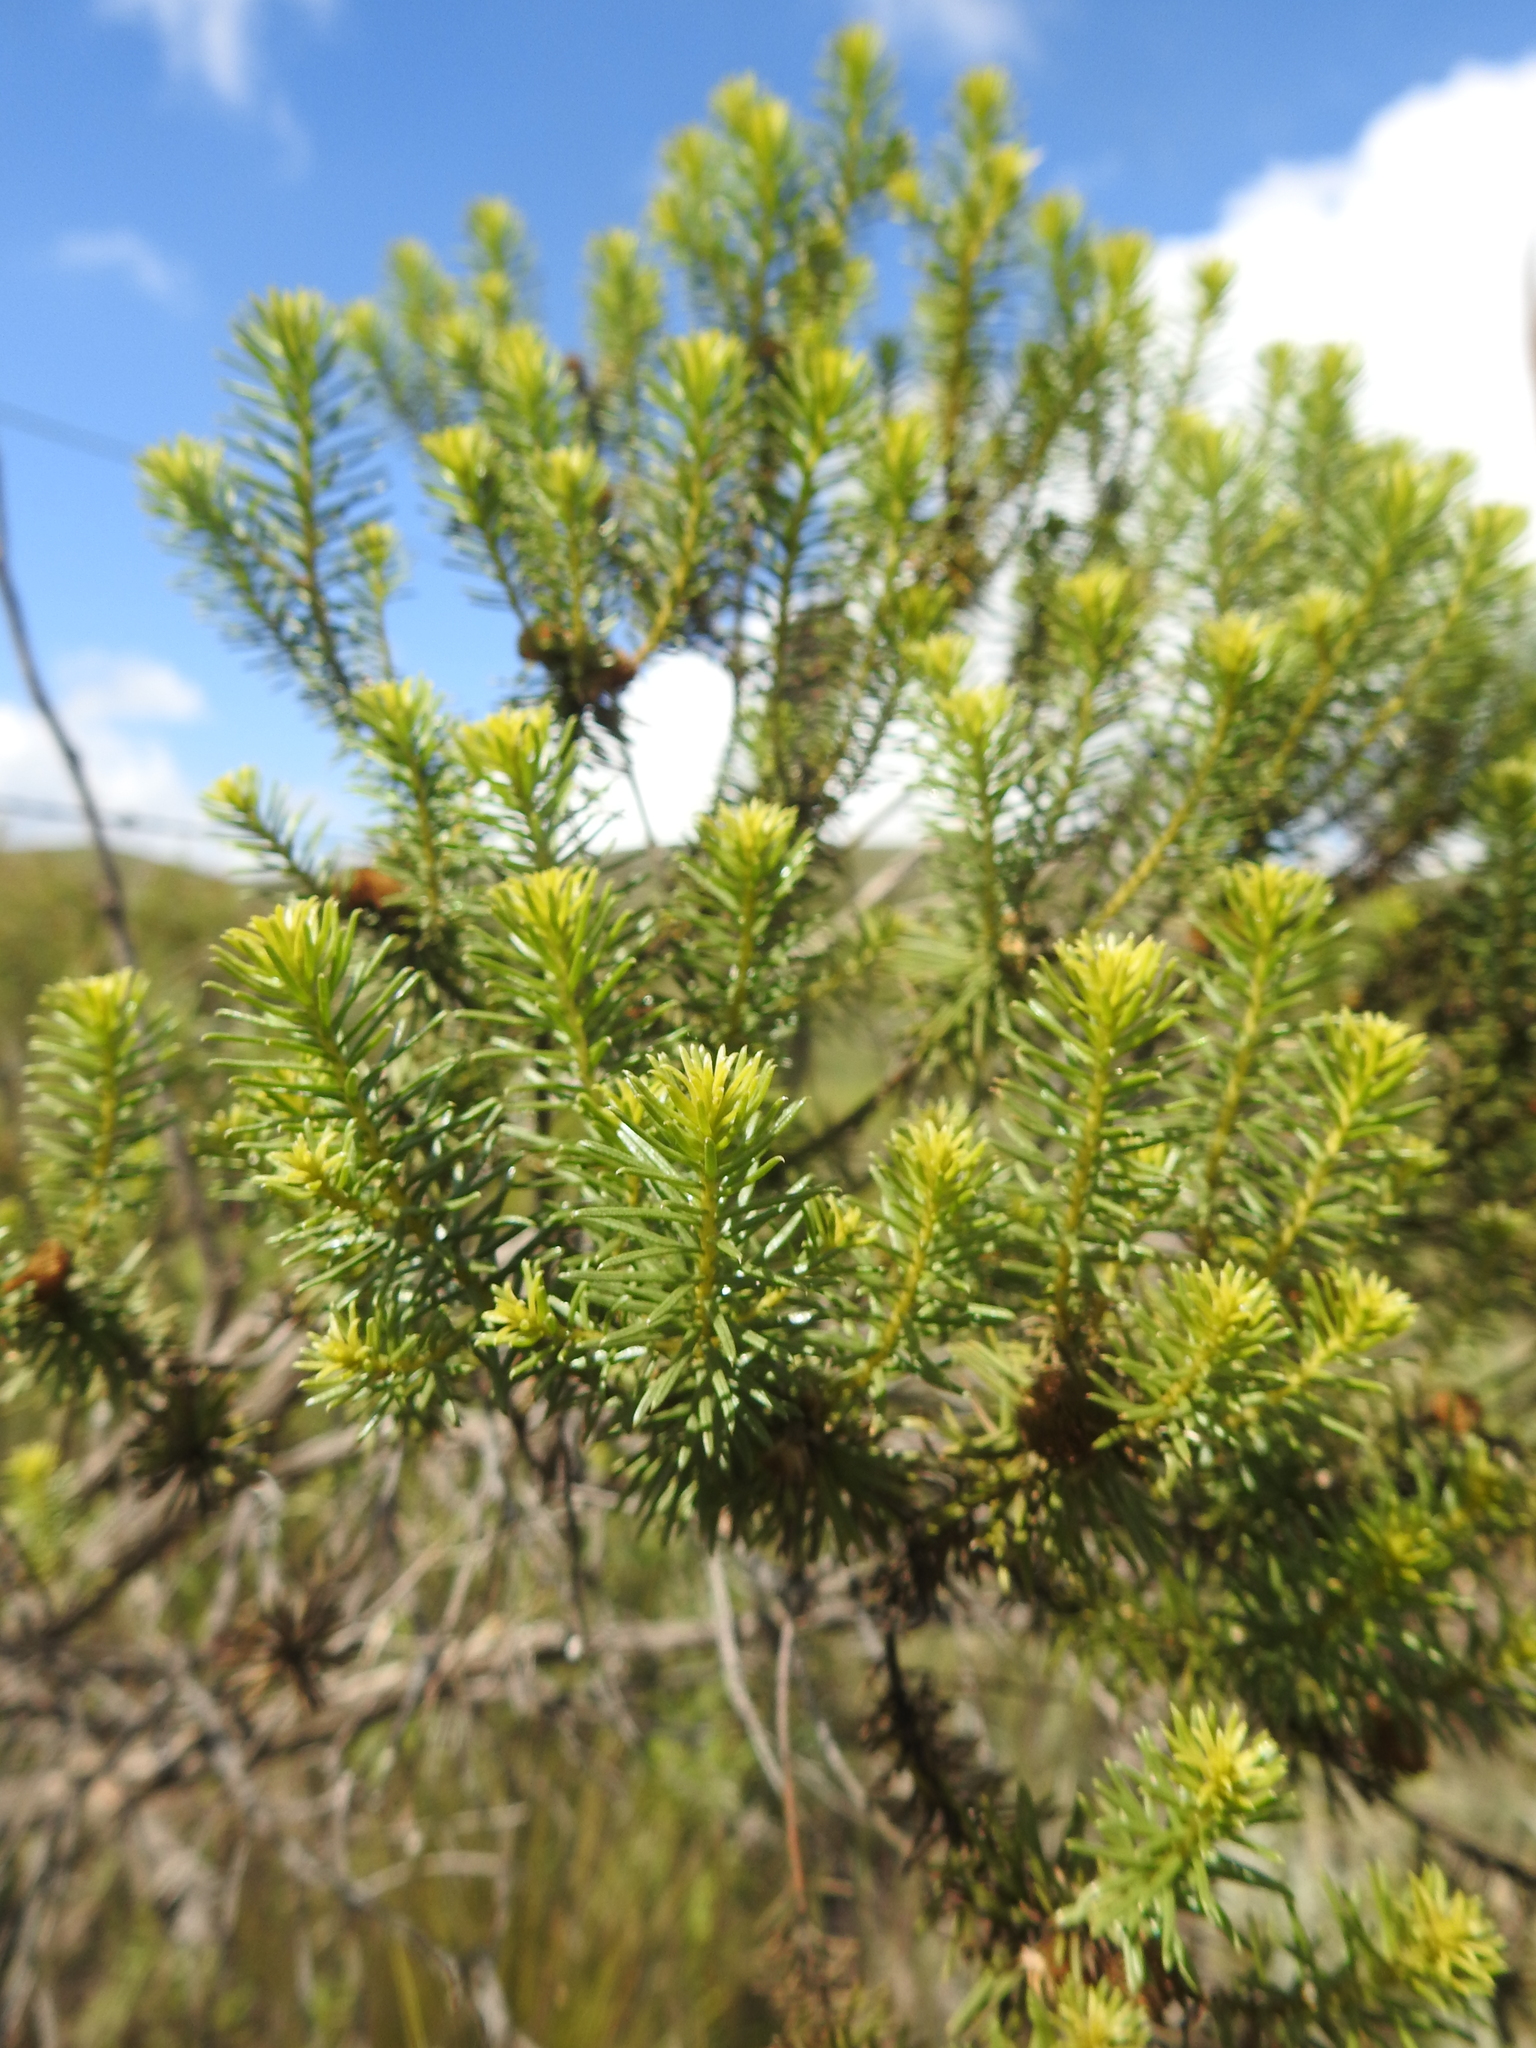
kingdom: Plantae
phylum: Tracheophyta
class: Magnoliopsida
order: Asterales
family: Asteraceae
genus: Baccharis
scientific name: Baccharis aliena
